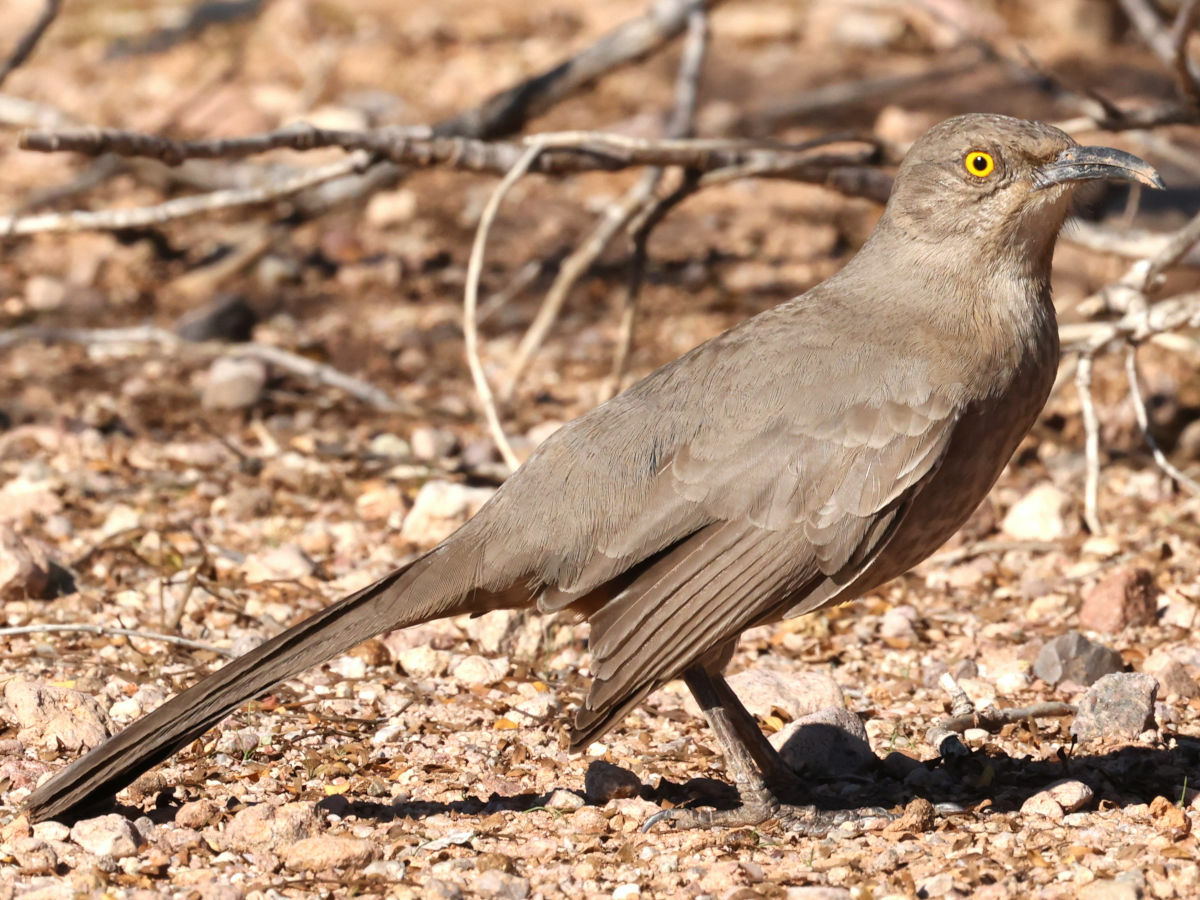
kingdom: Animalia
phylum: Chordata
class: Aves
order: Passeriformes
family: Mimidae
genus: Toxostoma
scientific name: Toxostoma curvirostre
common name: Curve-billed thrasher
